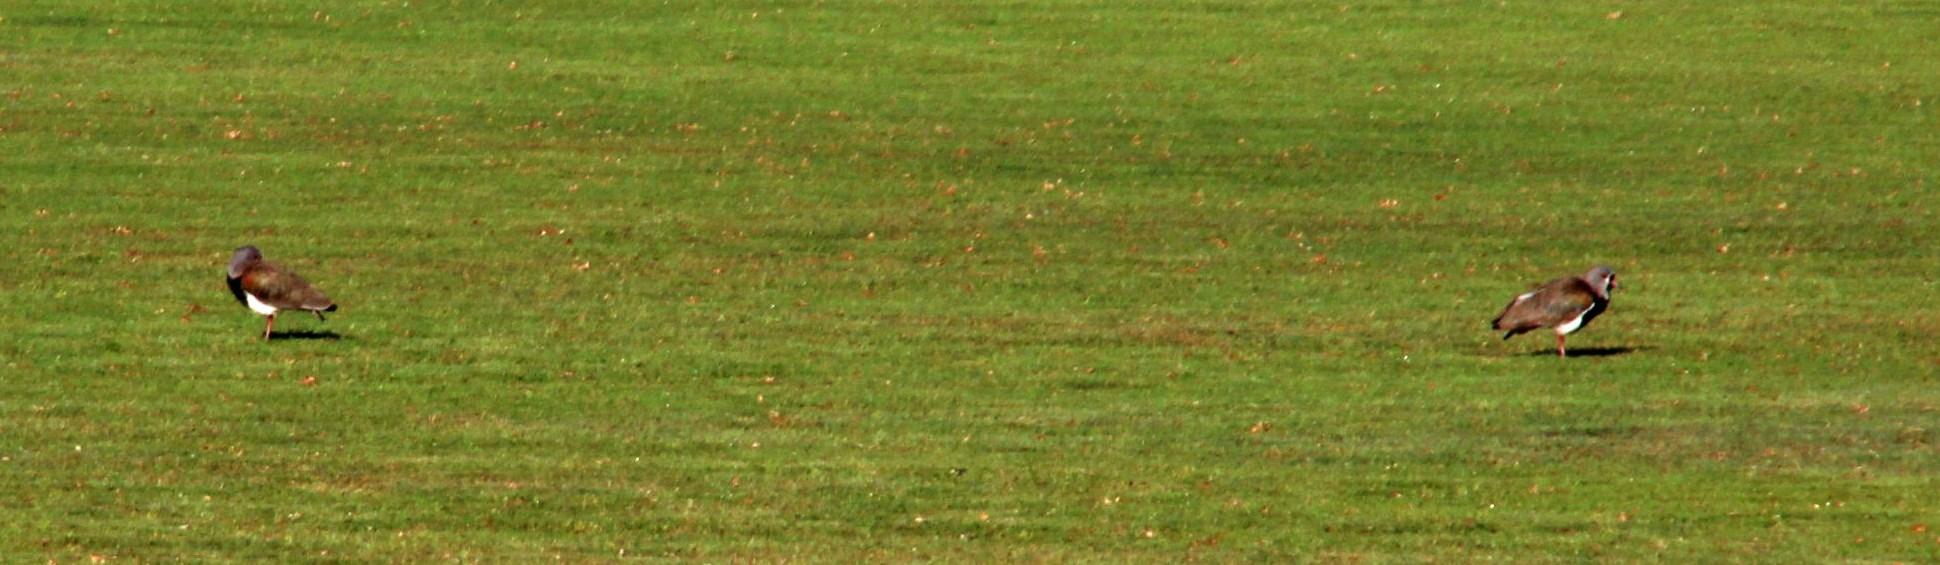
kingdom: Animalia
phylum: Chordata
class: Aves
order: Charadriiformes
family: Charadriidae
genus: Vanellus
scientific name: Vanellus chilensis
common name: Southern lapwing
